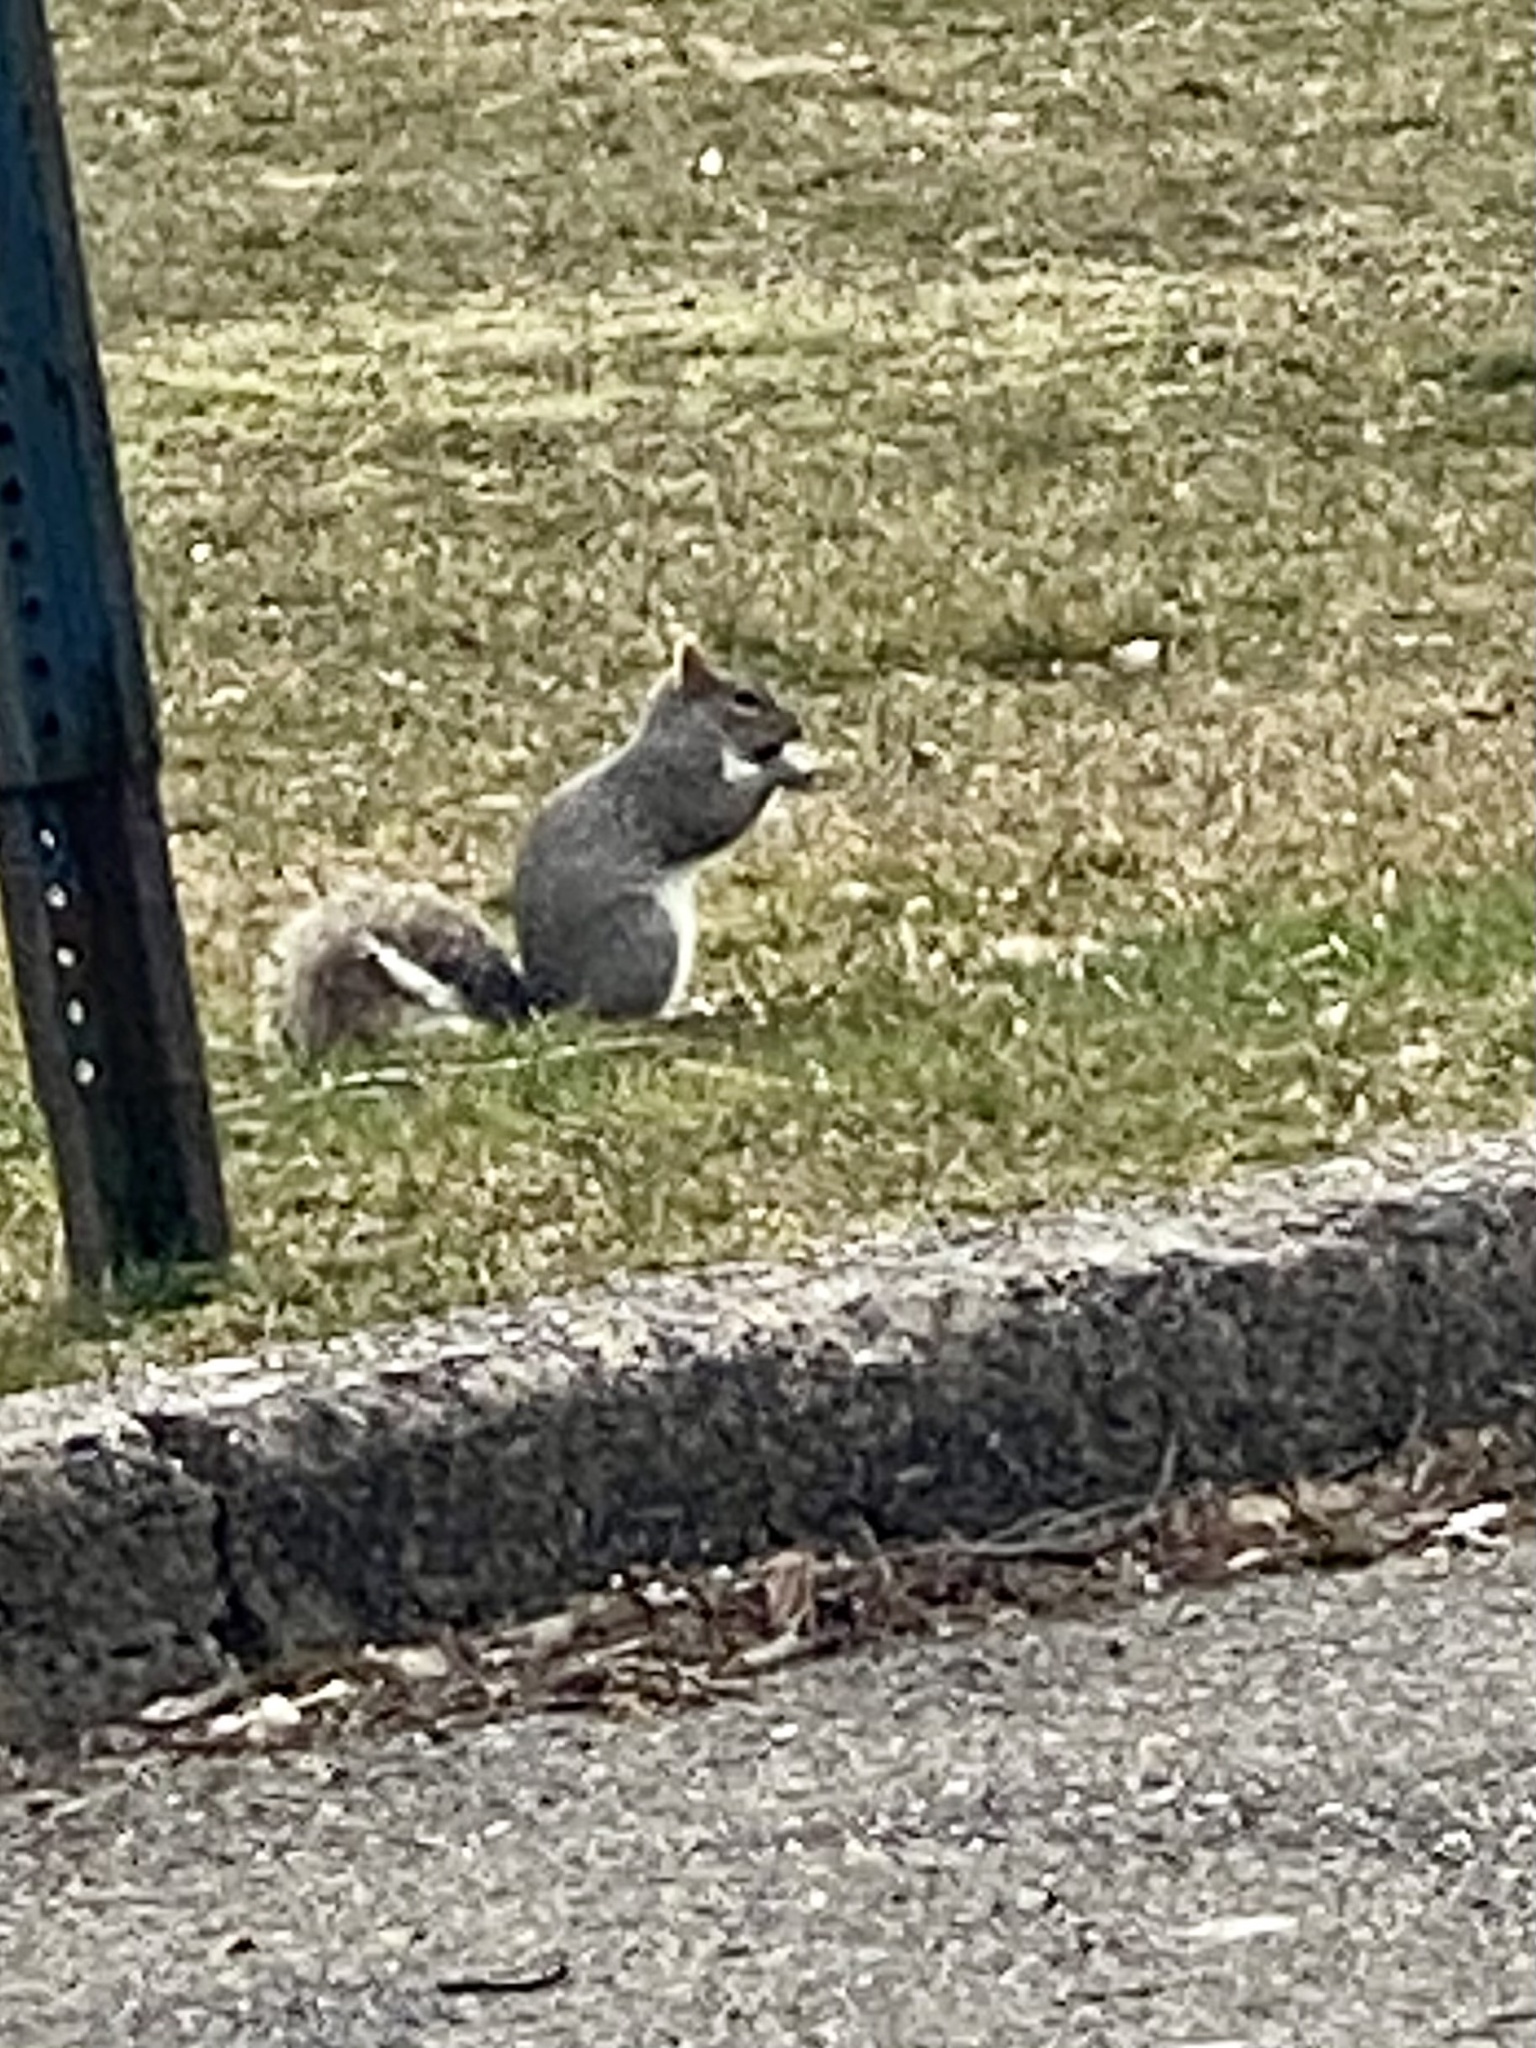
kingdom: Animalia
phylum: Chordata
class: Mammalia
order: Rodentia
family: Sciuridae
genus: Sciurus
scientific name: Sciurus carolinensis
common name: Eastern gray squirrel
